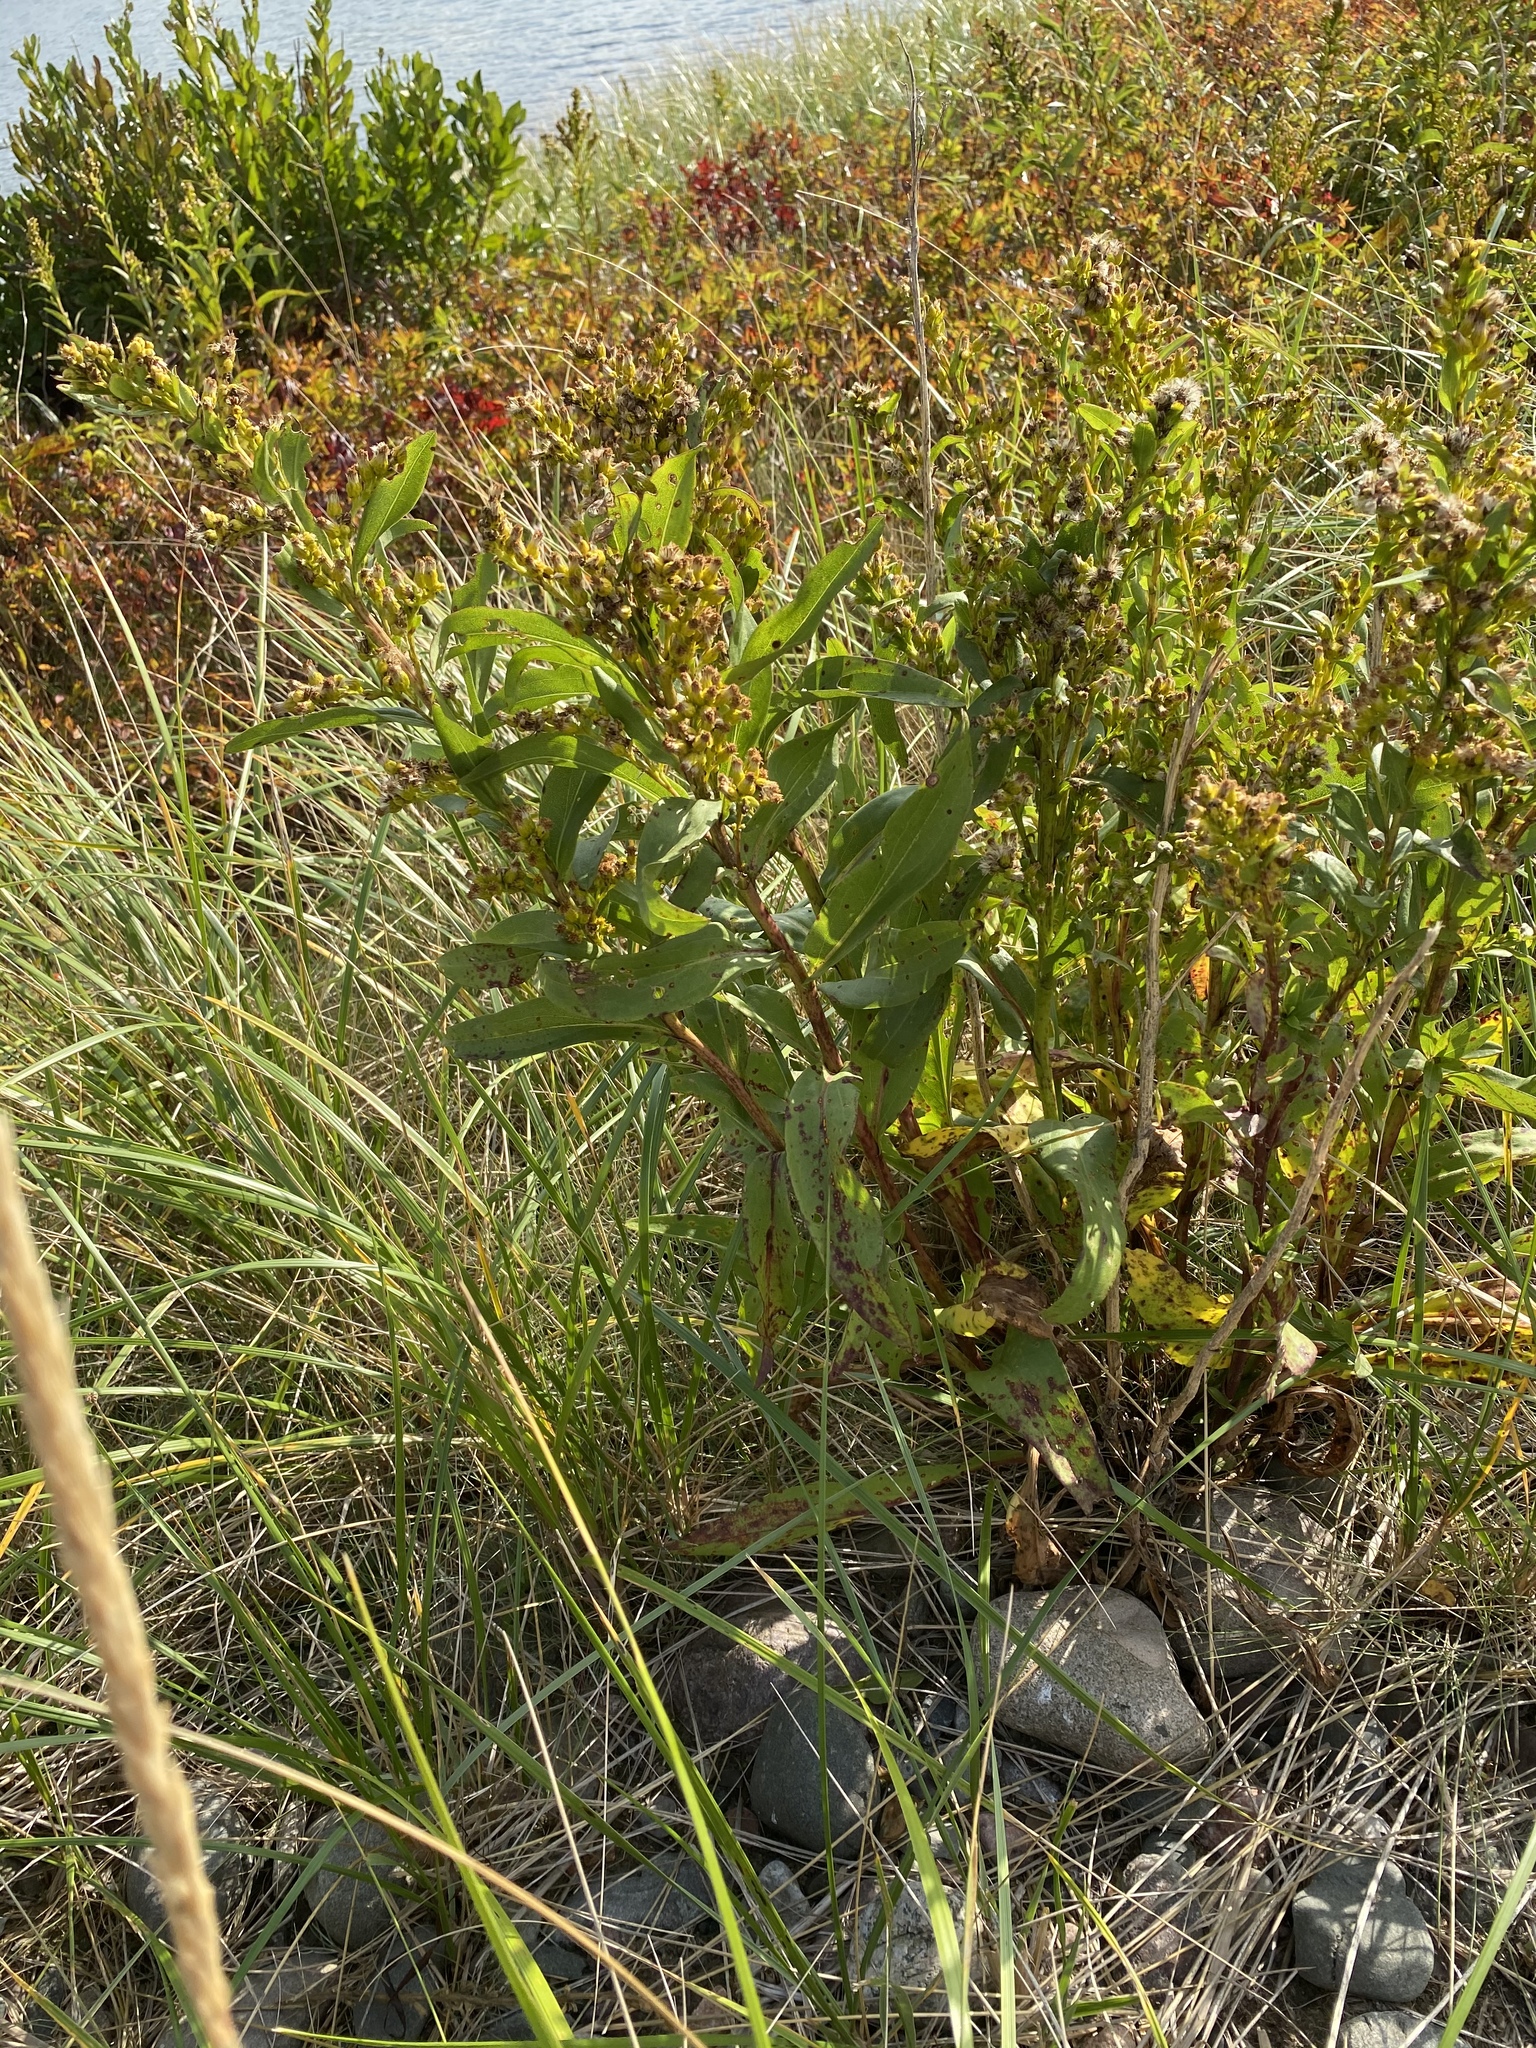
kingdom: Plantae
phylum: Tracheophyta
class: Magnoliopsida
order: Asterales
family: Asteraceae
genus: Solidago
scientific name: Solidago sempervirens
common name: Salt-marsh goldenrod
